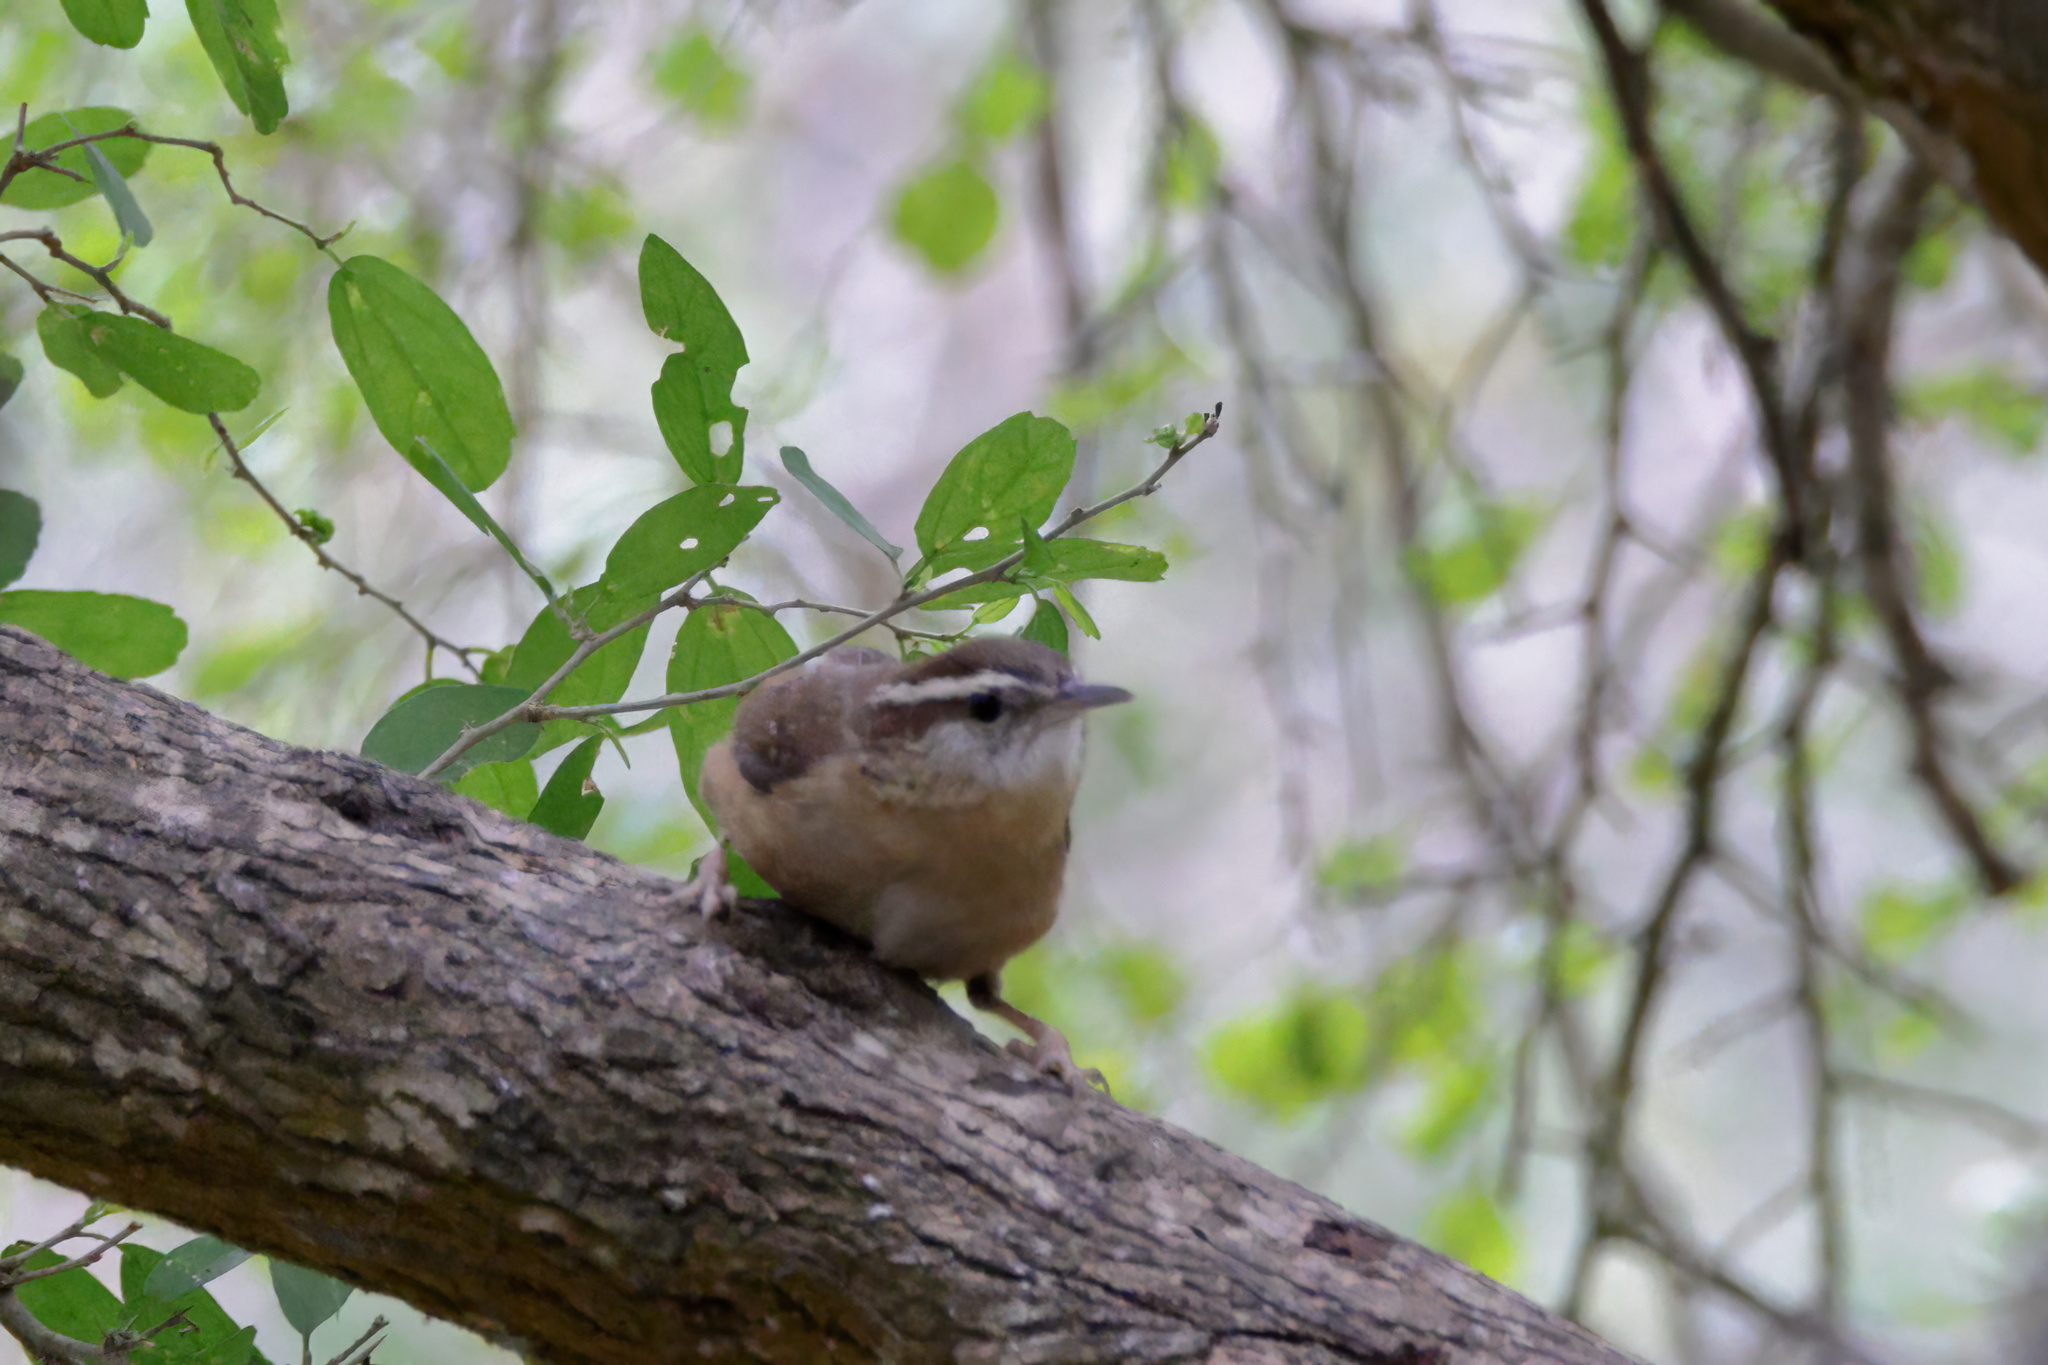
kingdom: Animalia
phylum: Chordata
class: Aves
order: Passeriformes
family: Troglodytidae
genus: Thryothorus
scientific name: Thryothorus ludovicianus
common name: Carolina wren
